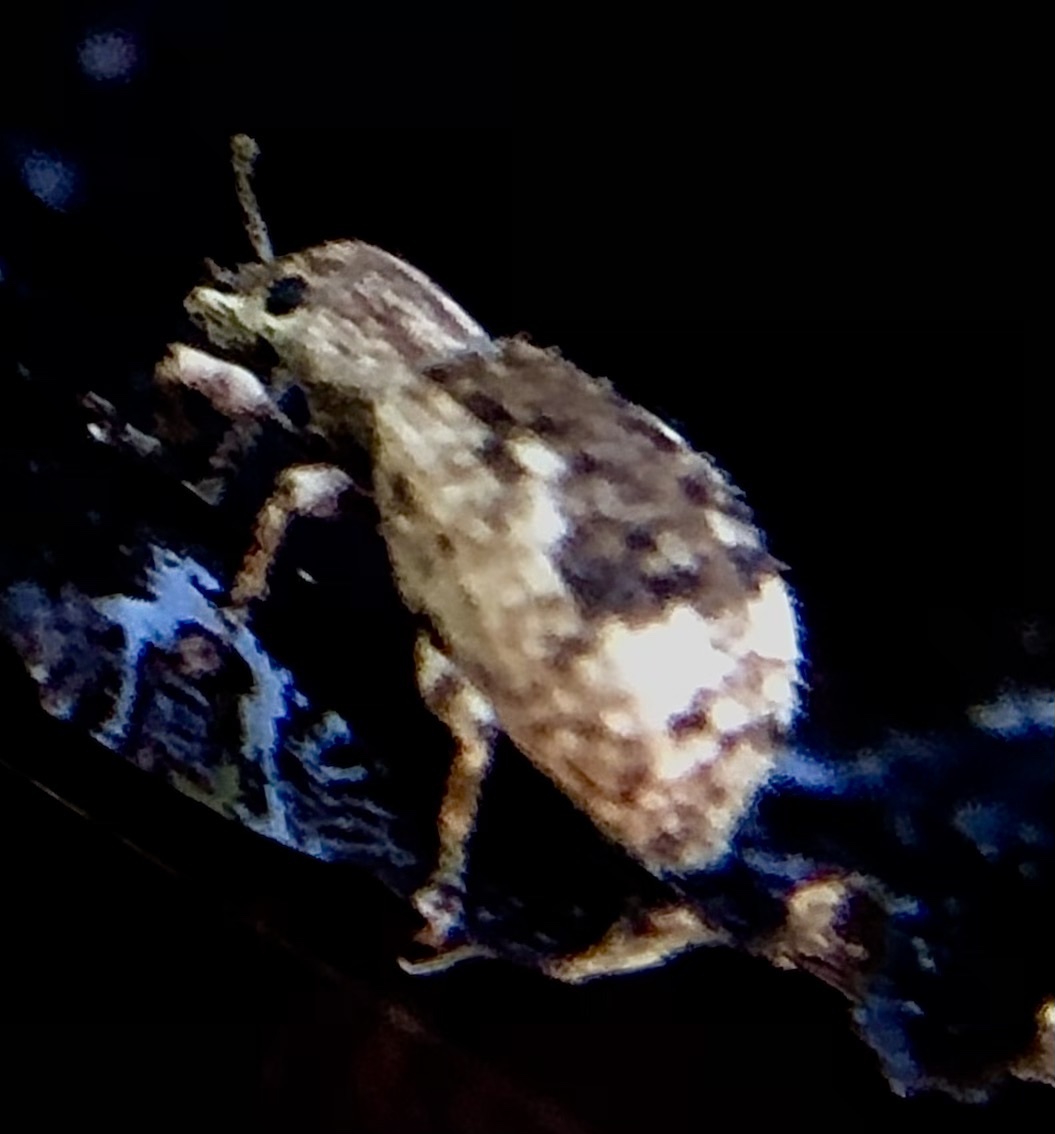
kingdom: Animalia
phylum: Arthropoda
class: Insecta
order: Coleoptera
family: Curculionidae
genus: Pseudoedophrys
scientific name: Pseudoedophrys hilleri
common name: Weevil
